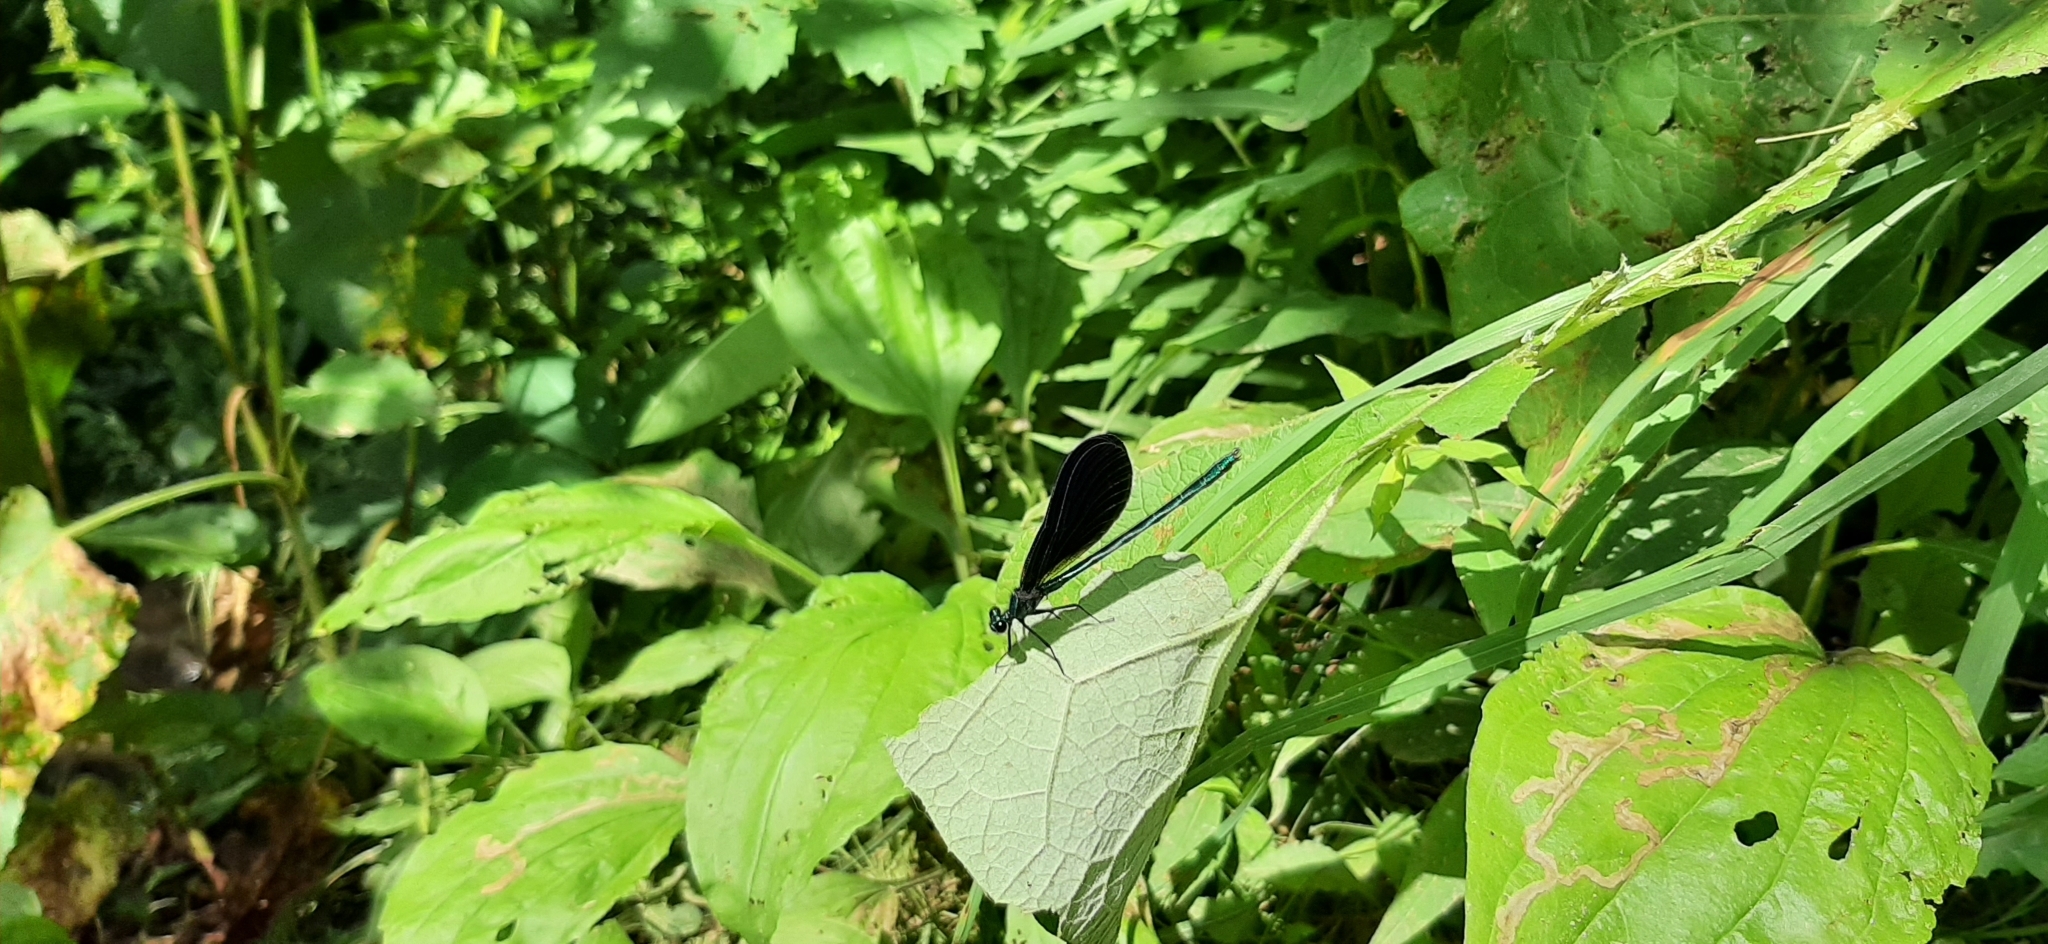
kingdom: Animalia
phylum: Arthropoda
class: Insecta
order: Odonata
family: Calopterygidae
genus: Calopteryx
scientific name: Calopteryx maculata
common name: Ebony jewelwing
